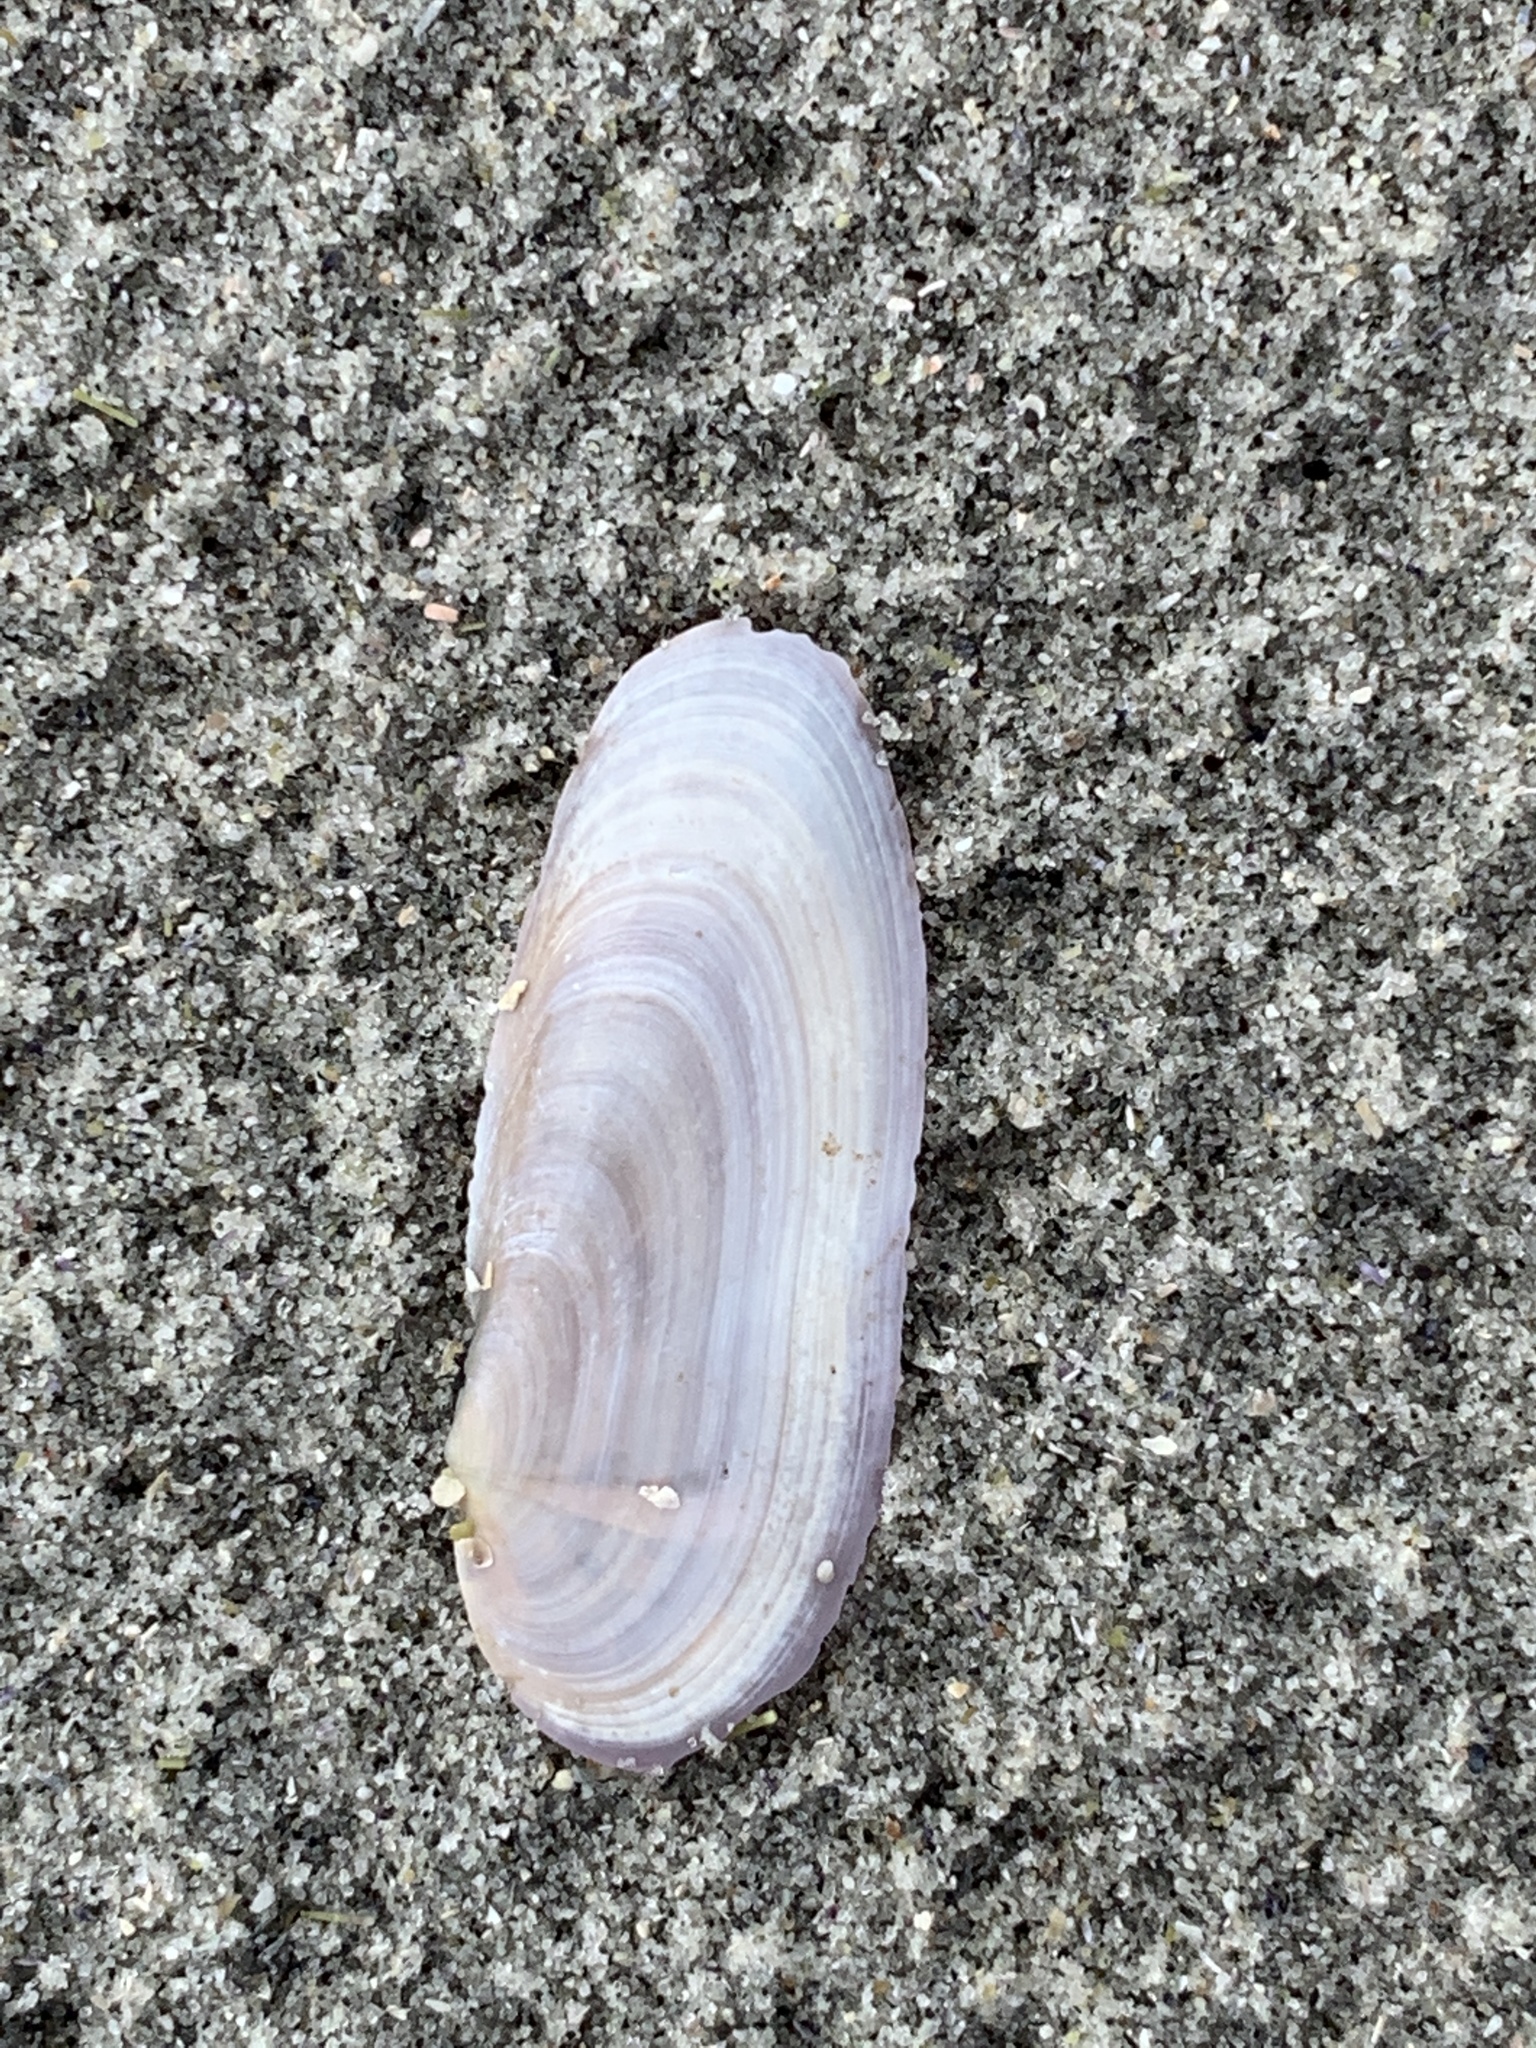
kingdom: Animalia
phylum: Mollusca
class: Bivalvia
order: Adapedonta
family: Pharidae
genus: Siliqua
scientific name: Siliqua costata
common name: Atlantic razor
